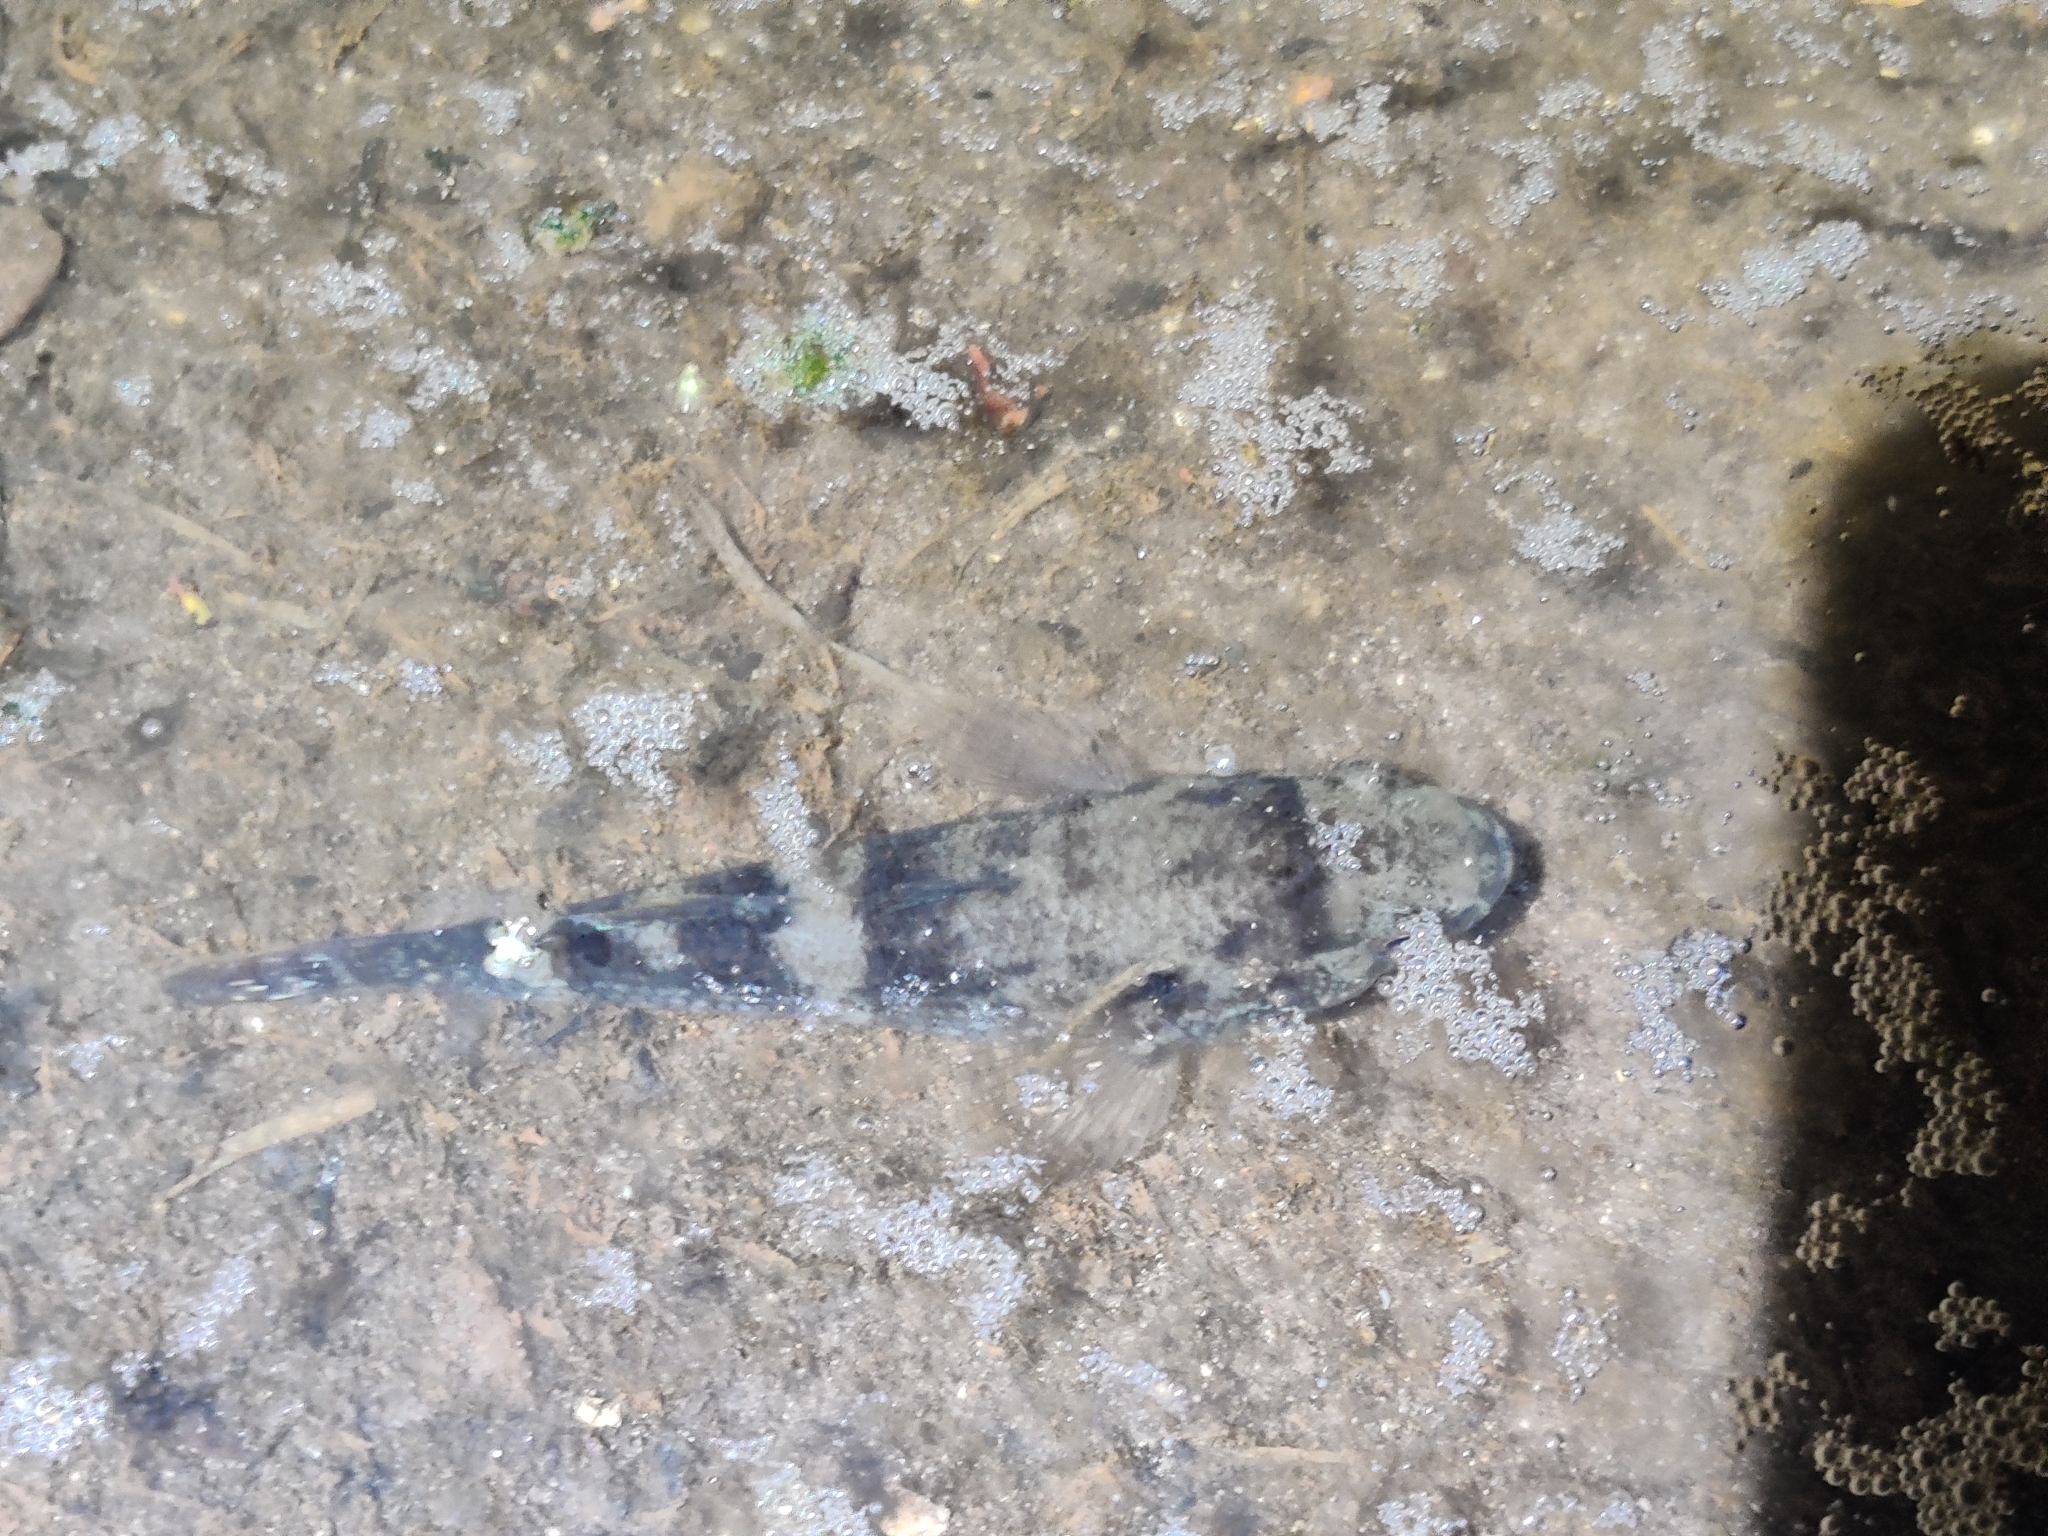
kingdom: Animalia
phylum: Chordata
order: Perciformes
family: Eleotridae
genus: Ophiocara
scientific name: Ophiocara porocephala
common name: Spangled gudgeon
